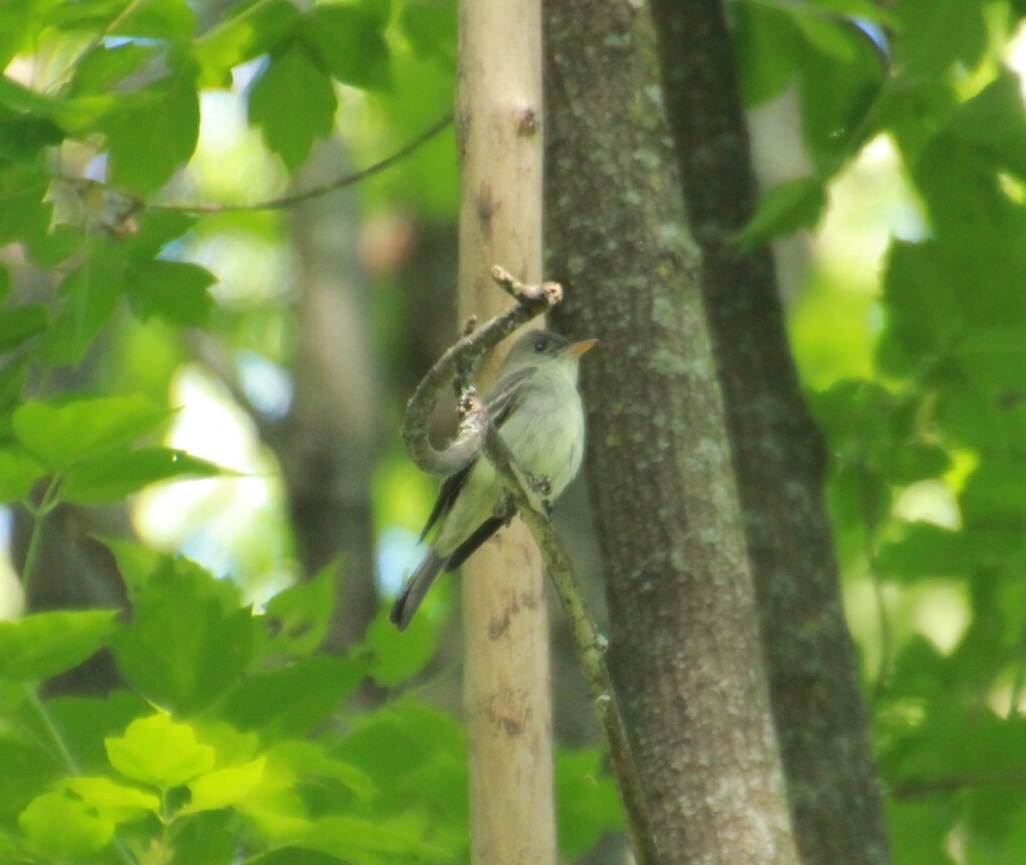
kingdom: Animalia
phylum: Chordata
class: Aves
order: Passeriformes
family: Tyrannidae
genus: Contopus
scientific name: Contopus virens
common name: Eastern wood-pewee
